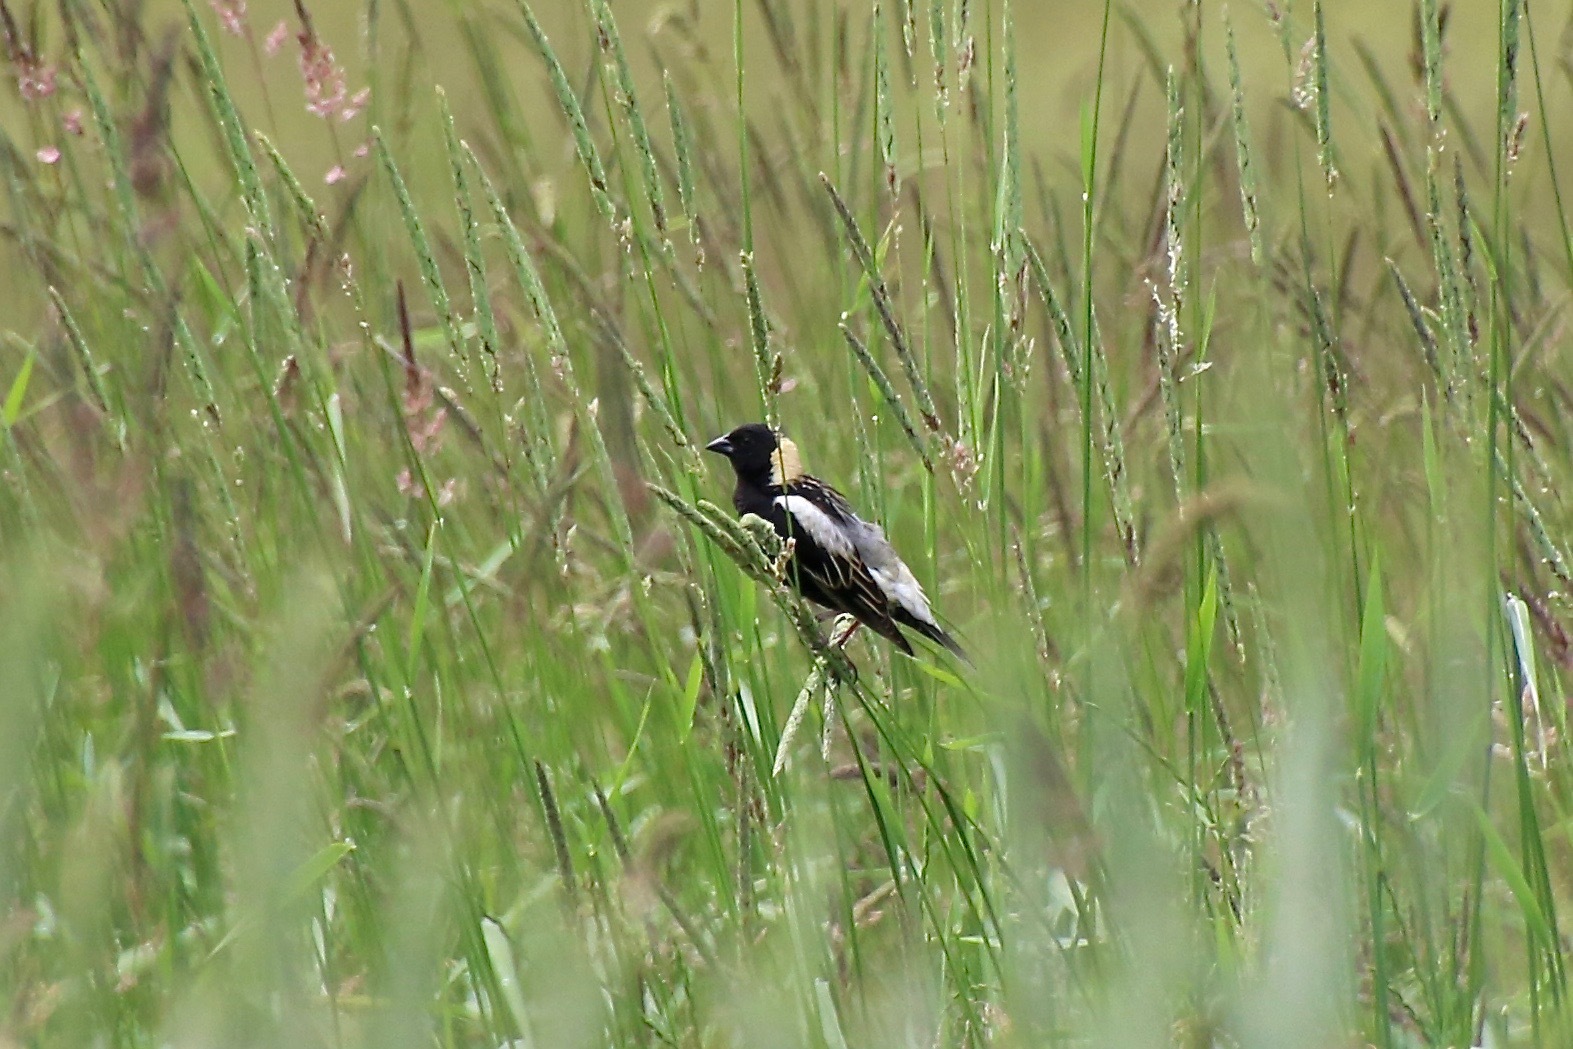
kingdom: Animalia
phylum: Chordata
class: Aves
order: Passeriformes
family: Icteridae
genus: Dolichonyx
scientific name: Dolichonyx oryzivorus
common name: Bobolink
